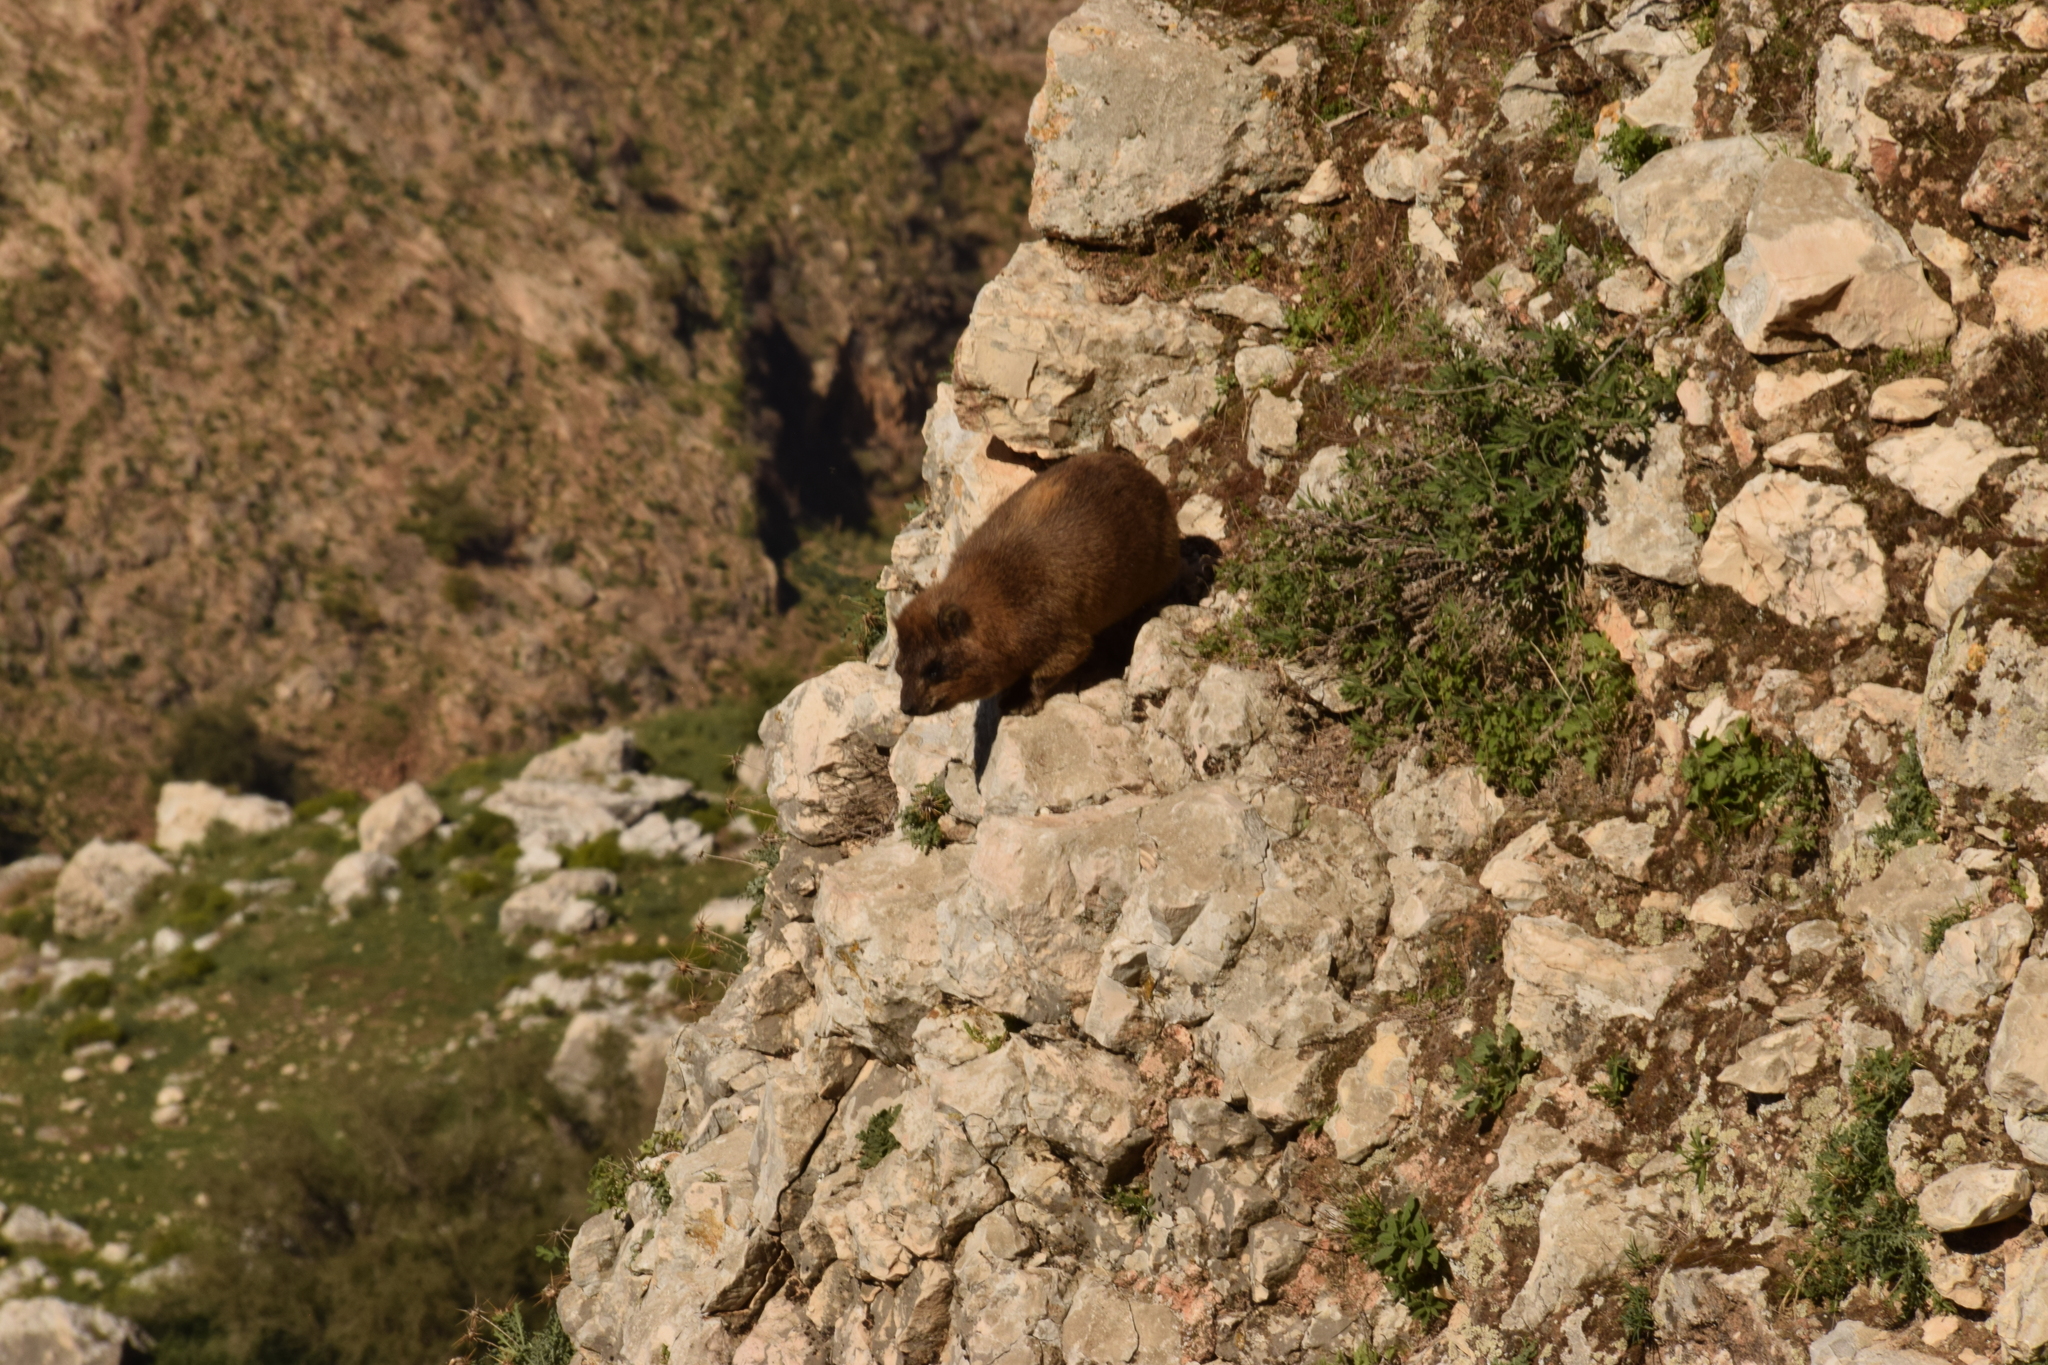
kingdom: Animalia
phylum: Chordata
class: Mammalia
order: Hyracoidea
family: Procaviidae
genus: Procavia
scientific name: Procavia capensis
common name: Rock hyrax
